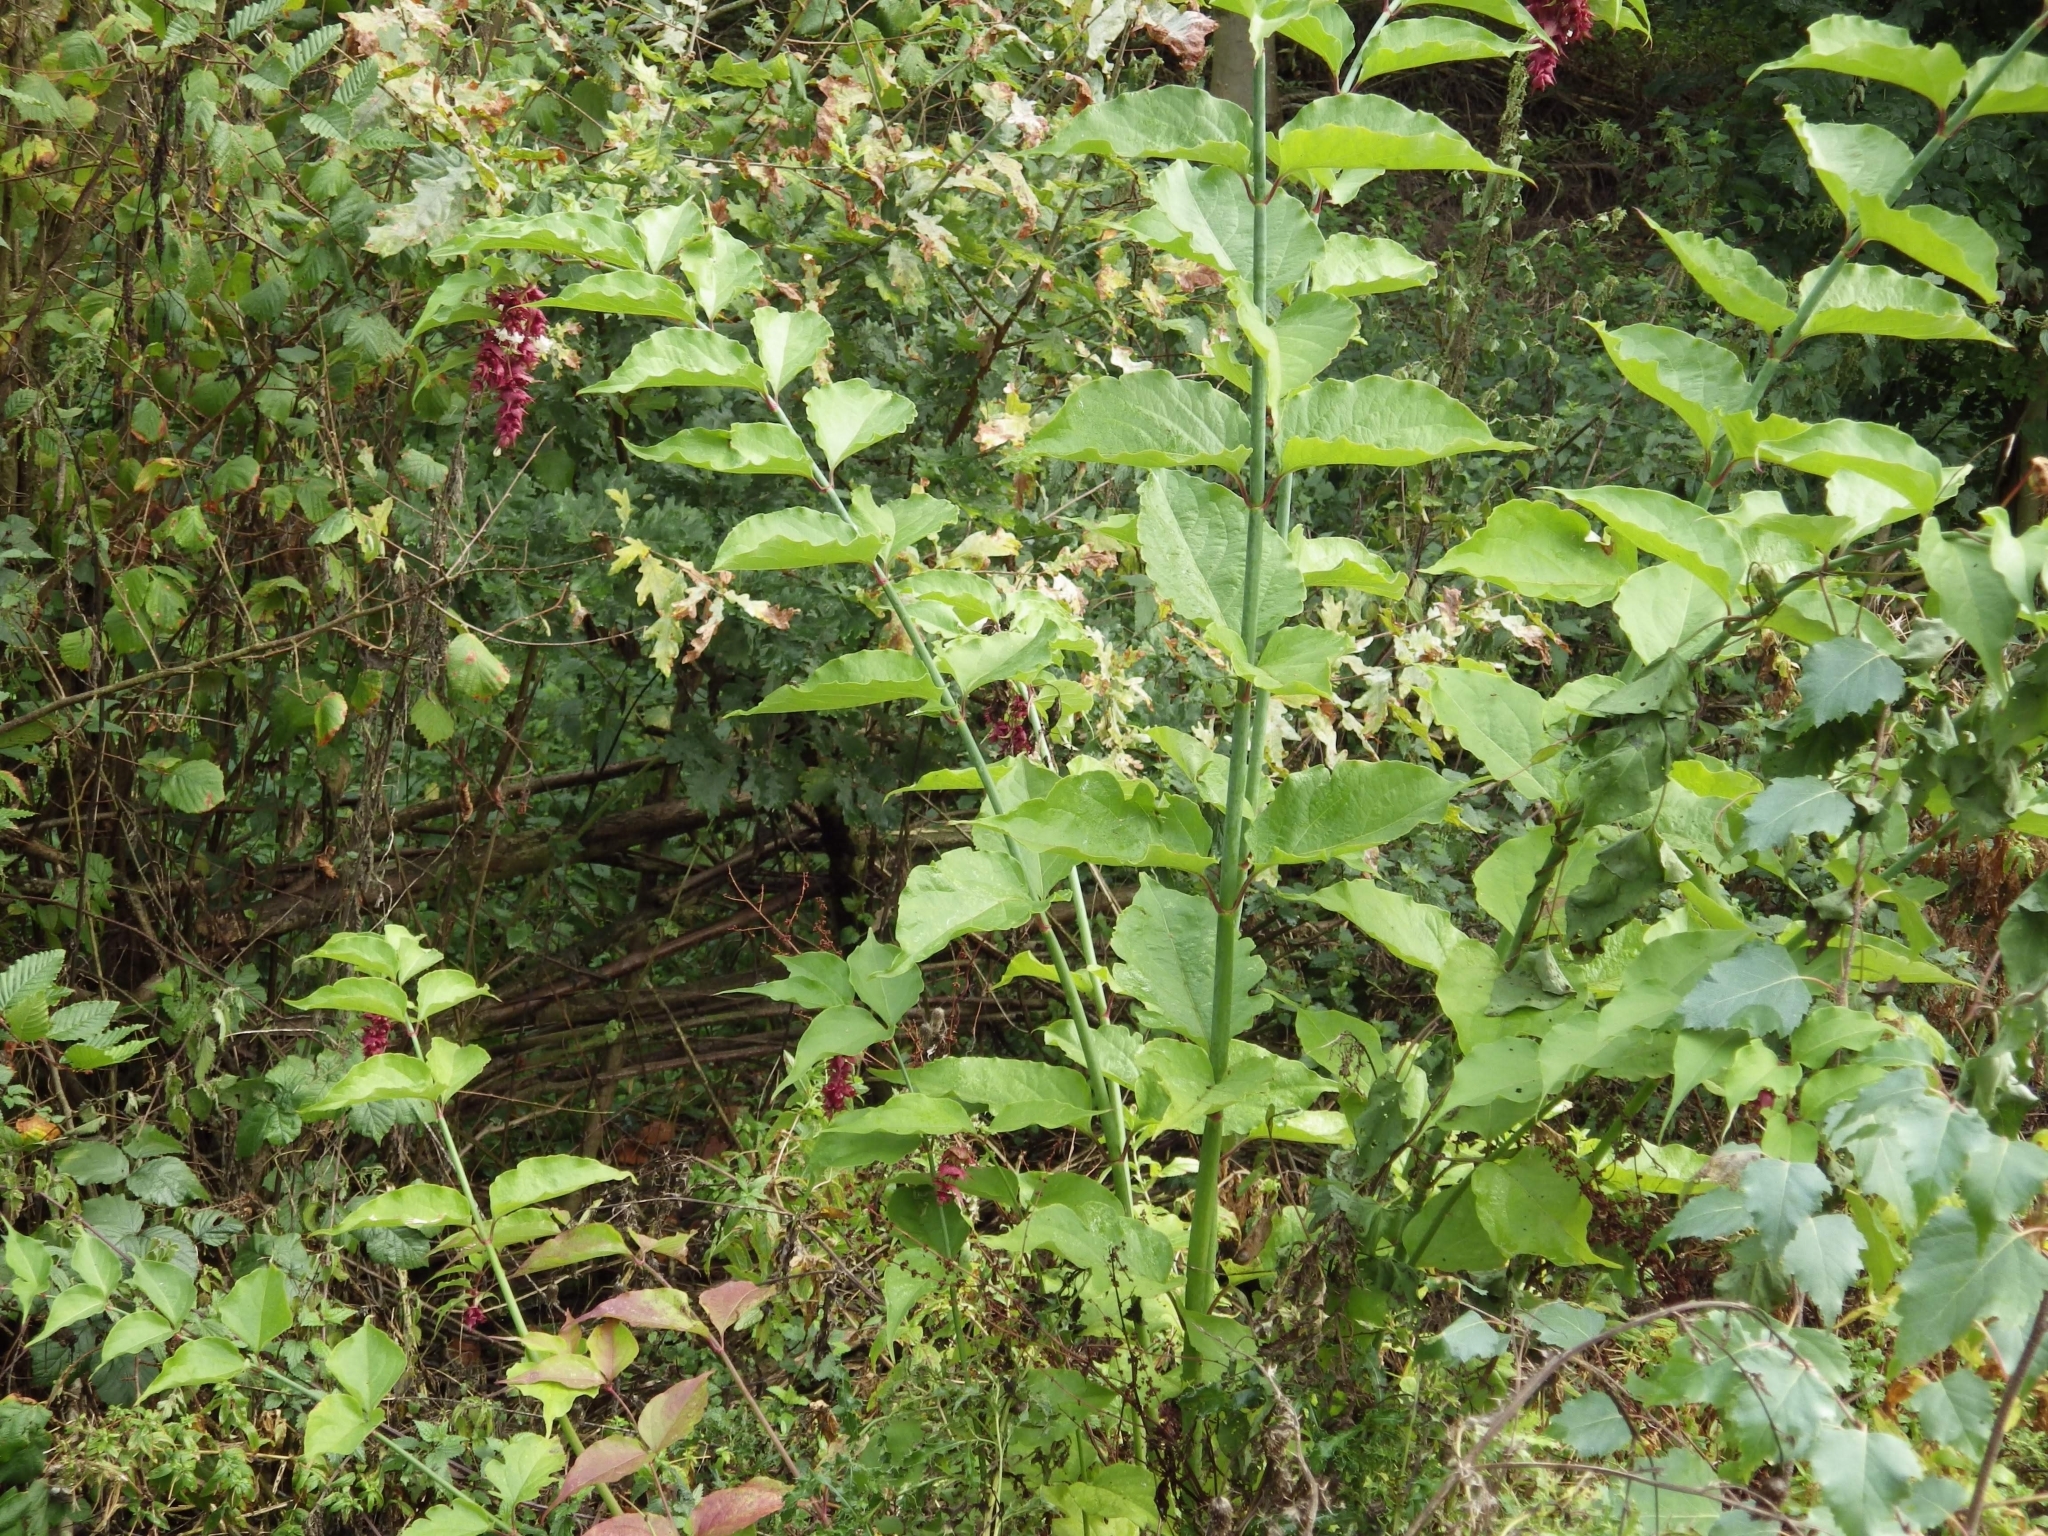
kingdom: Plantae
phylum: Tracheophyta
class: Magnoliopsida
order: Dipsacales
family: Caprifoliaceae
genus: Leycesteria
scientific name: Leycesteria formosa
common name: Himalayan honeysuckle
